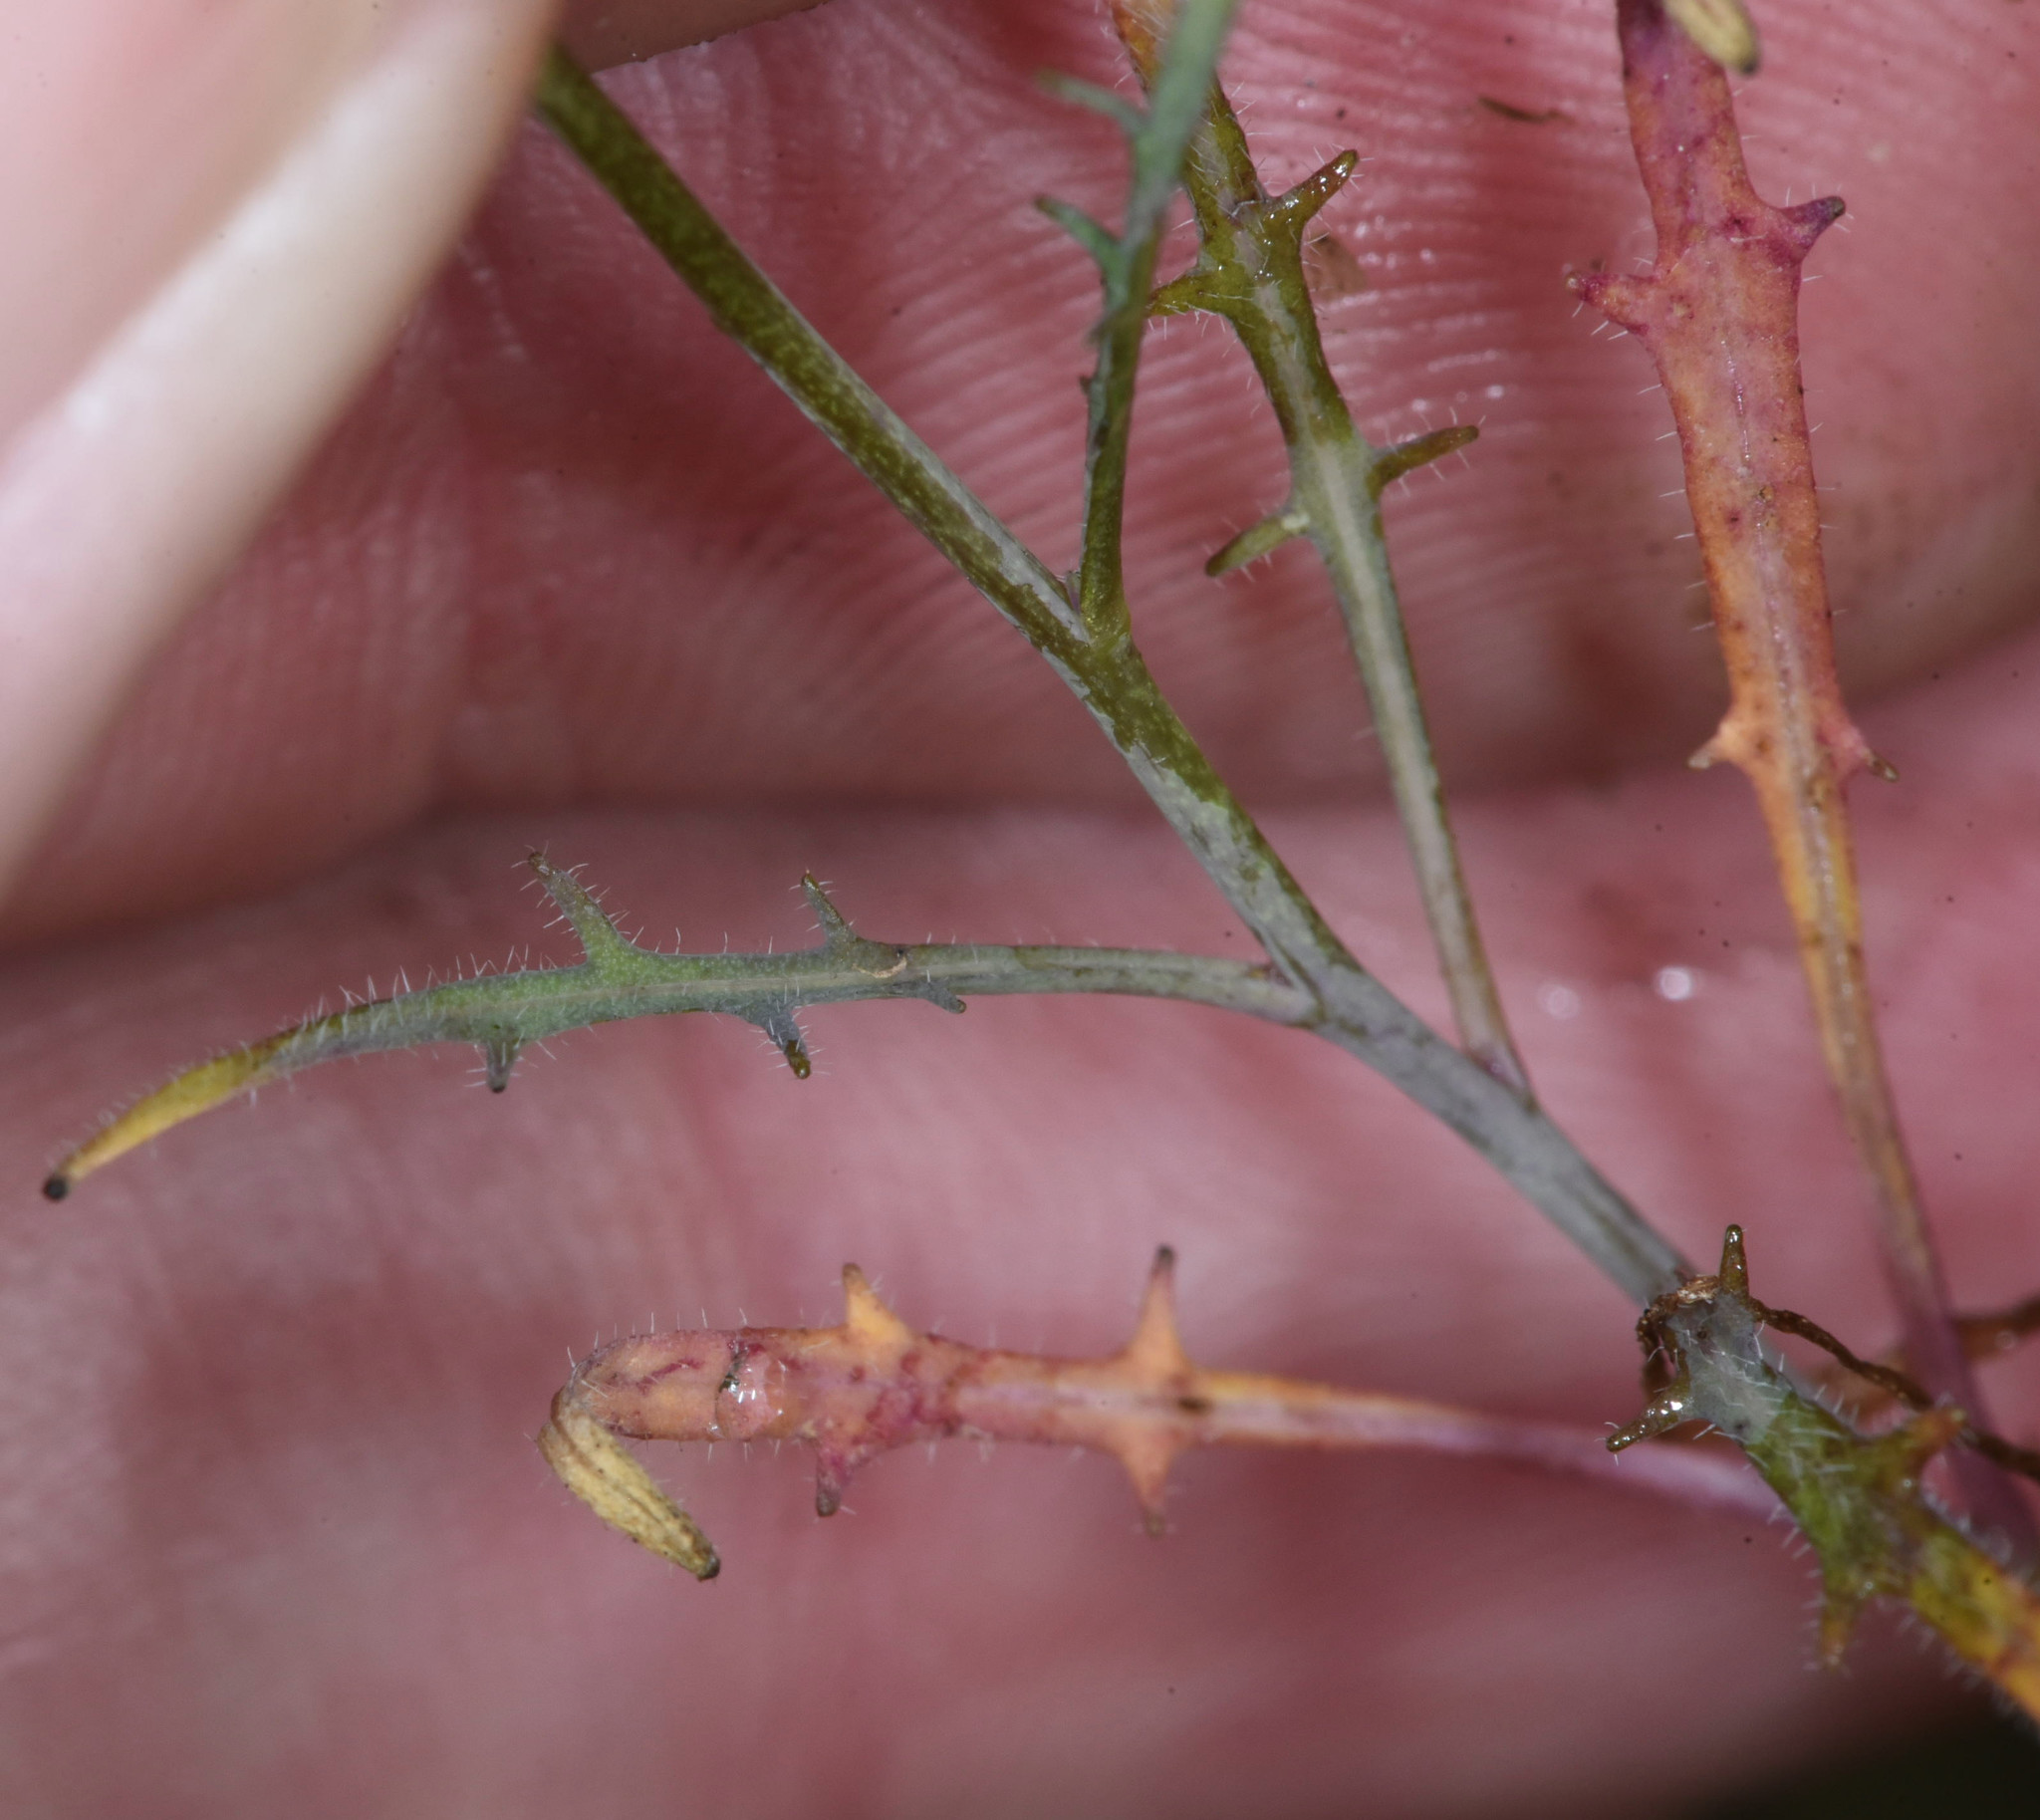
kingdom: Plantae
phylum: Tracheophyta
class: Magnoliopsida
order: Brassicales
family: Brassicaceae
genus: Thysanocarpus
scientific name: Thysanocarpus laciniatus
